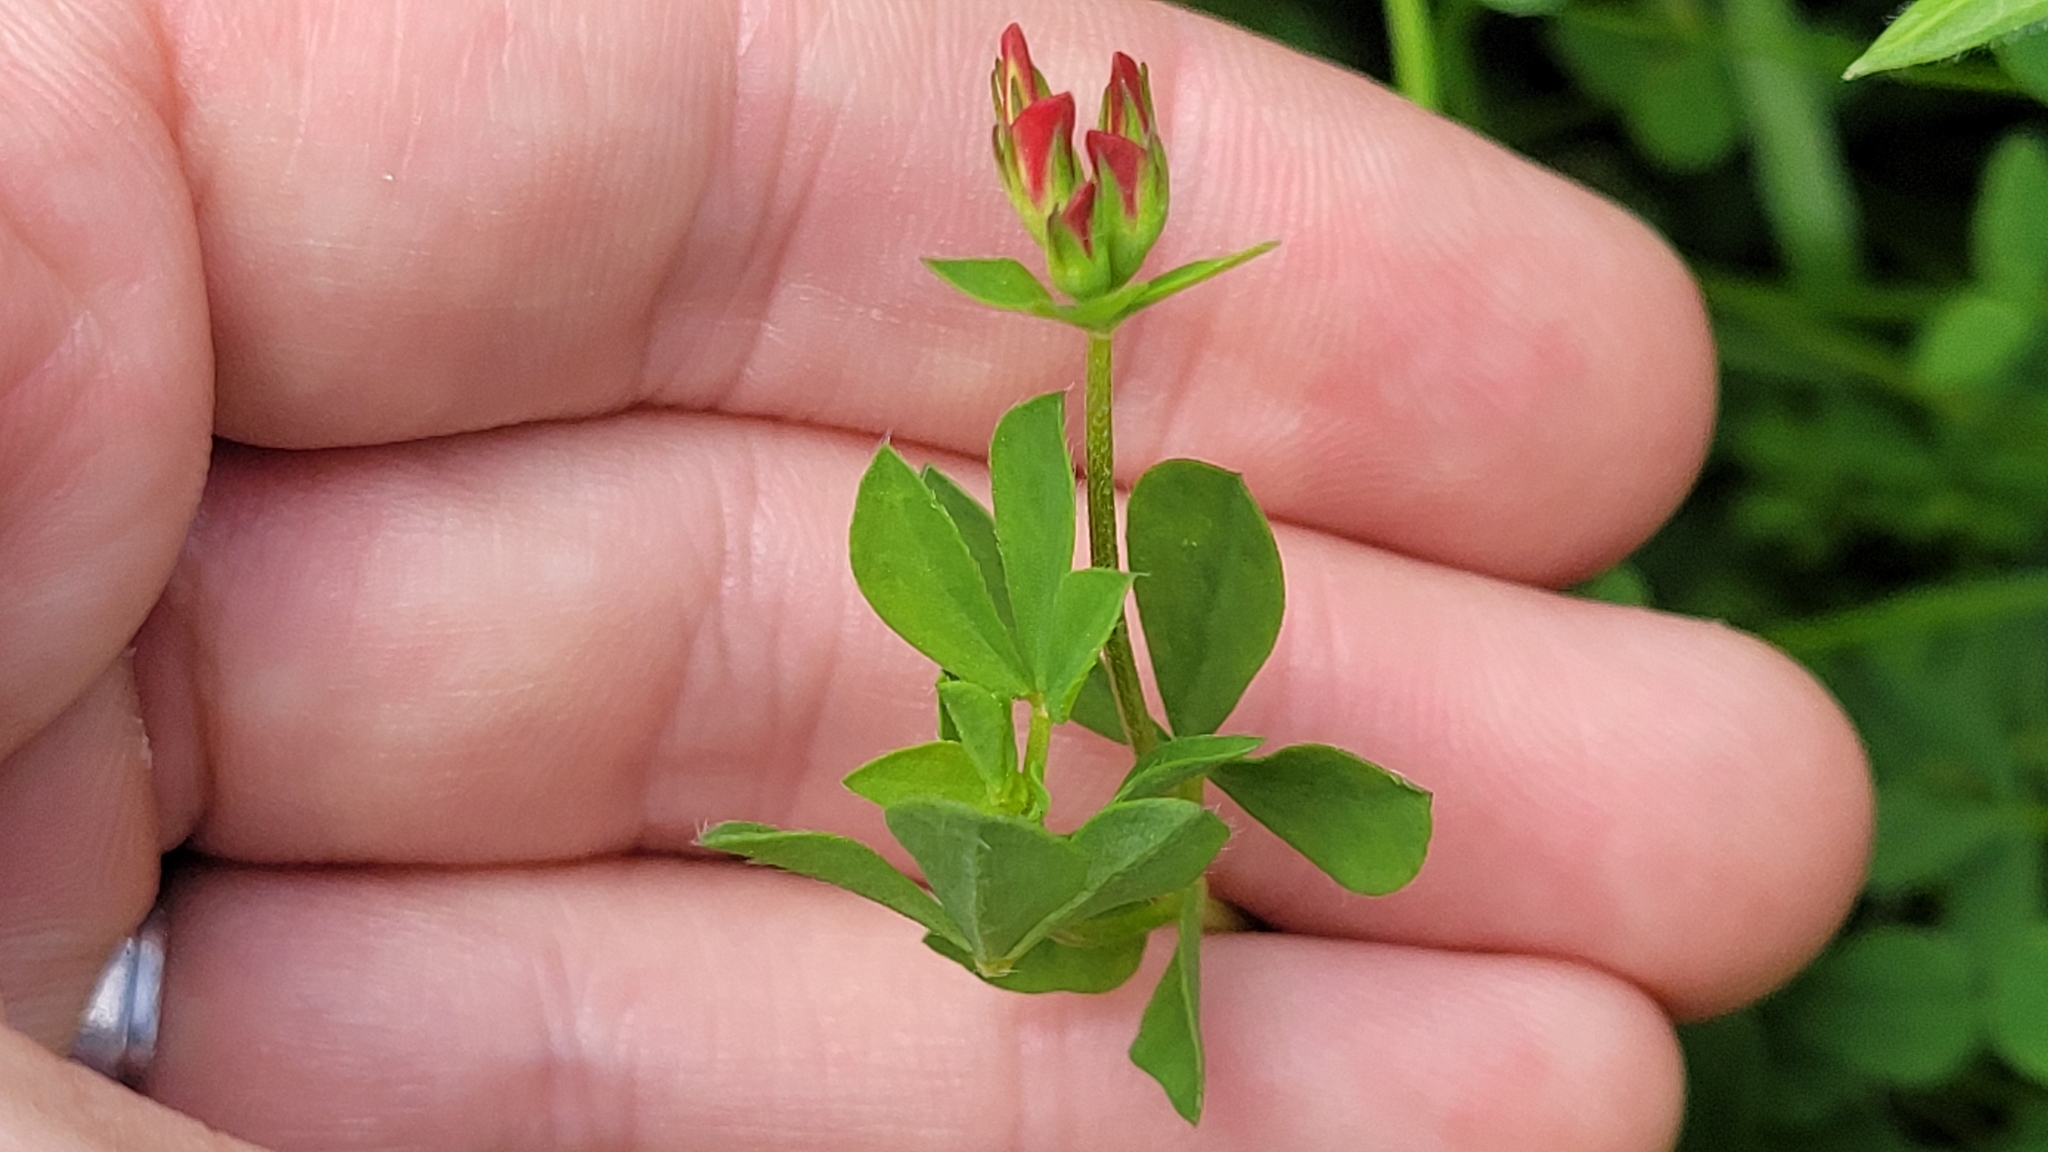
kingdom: Plantae
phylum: Tracheophyta
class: Magnoliopsida
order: Fabales
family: Fabaceae
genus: Lotus
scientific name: Lotus corniculatus
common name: Common bird's-foot-trefoil
